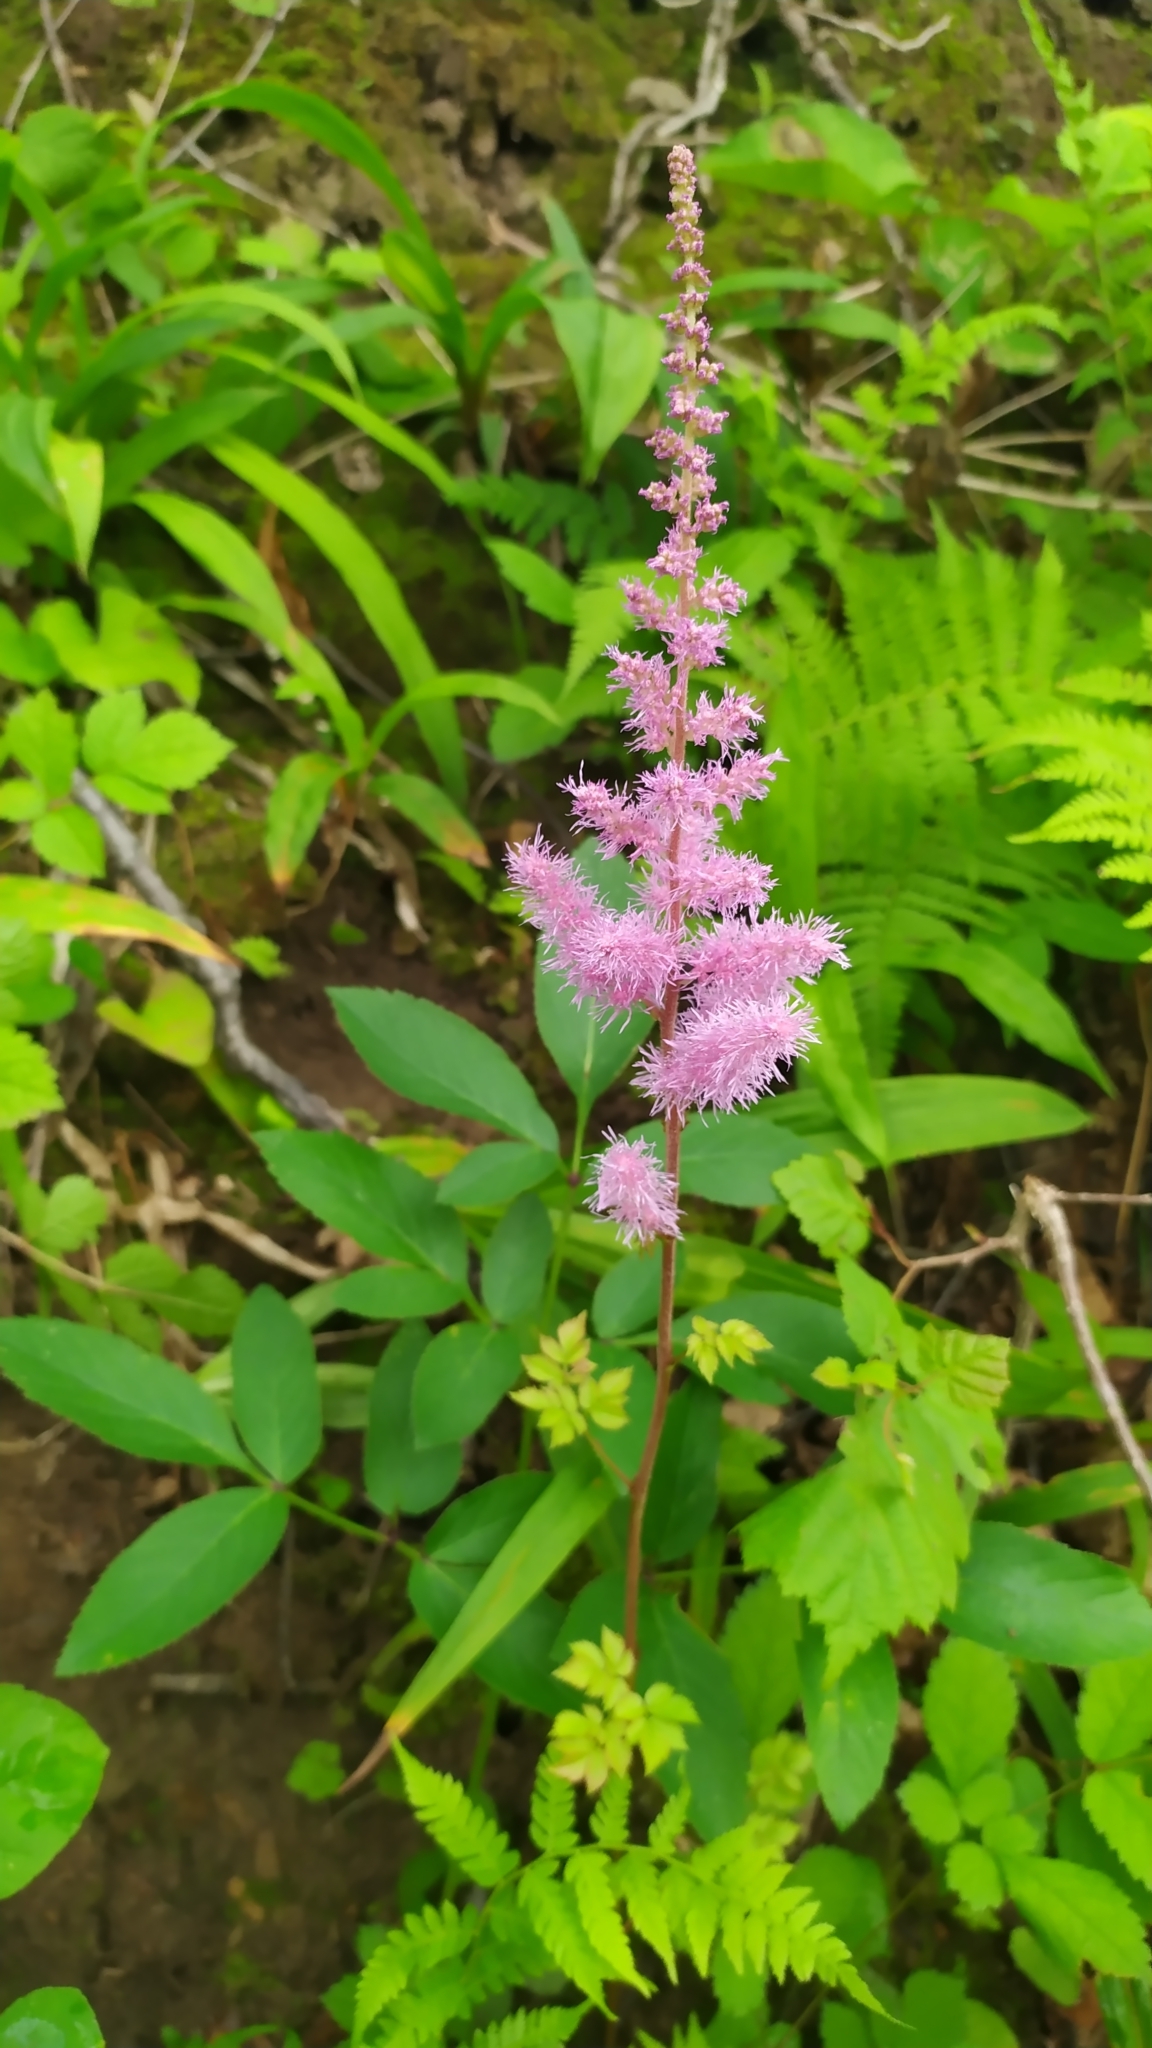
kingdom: Plantae
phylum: Tracheophyta
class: Magnoliopsida
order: Saxifragales
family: Saxifragaceae
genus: Astilbe
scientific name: Astilbe rubra
